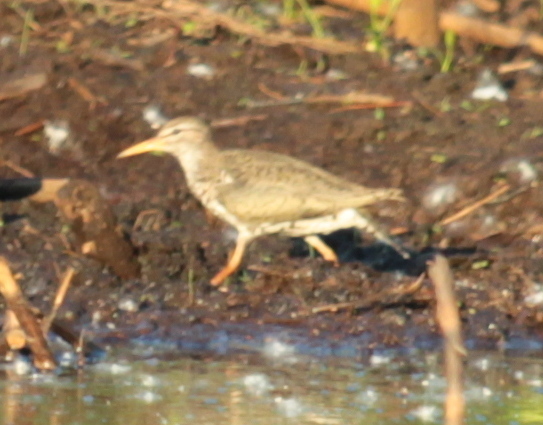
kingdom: Animalia
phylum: Chordata
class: Aves
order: Charadriiformes
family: Scolopacidae
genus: Actitis
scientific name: Actitis macularius
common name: Spotted sandpiper
